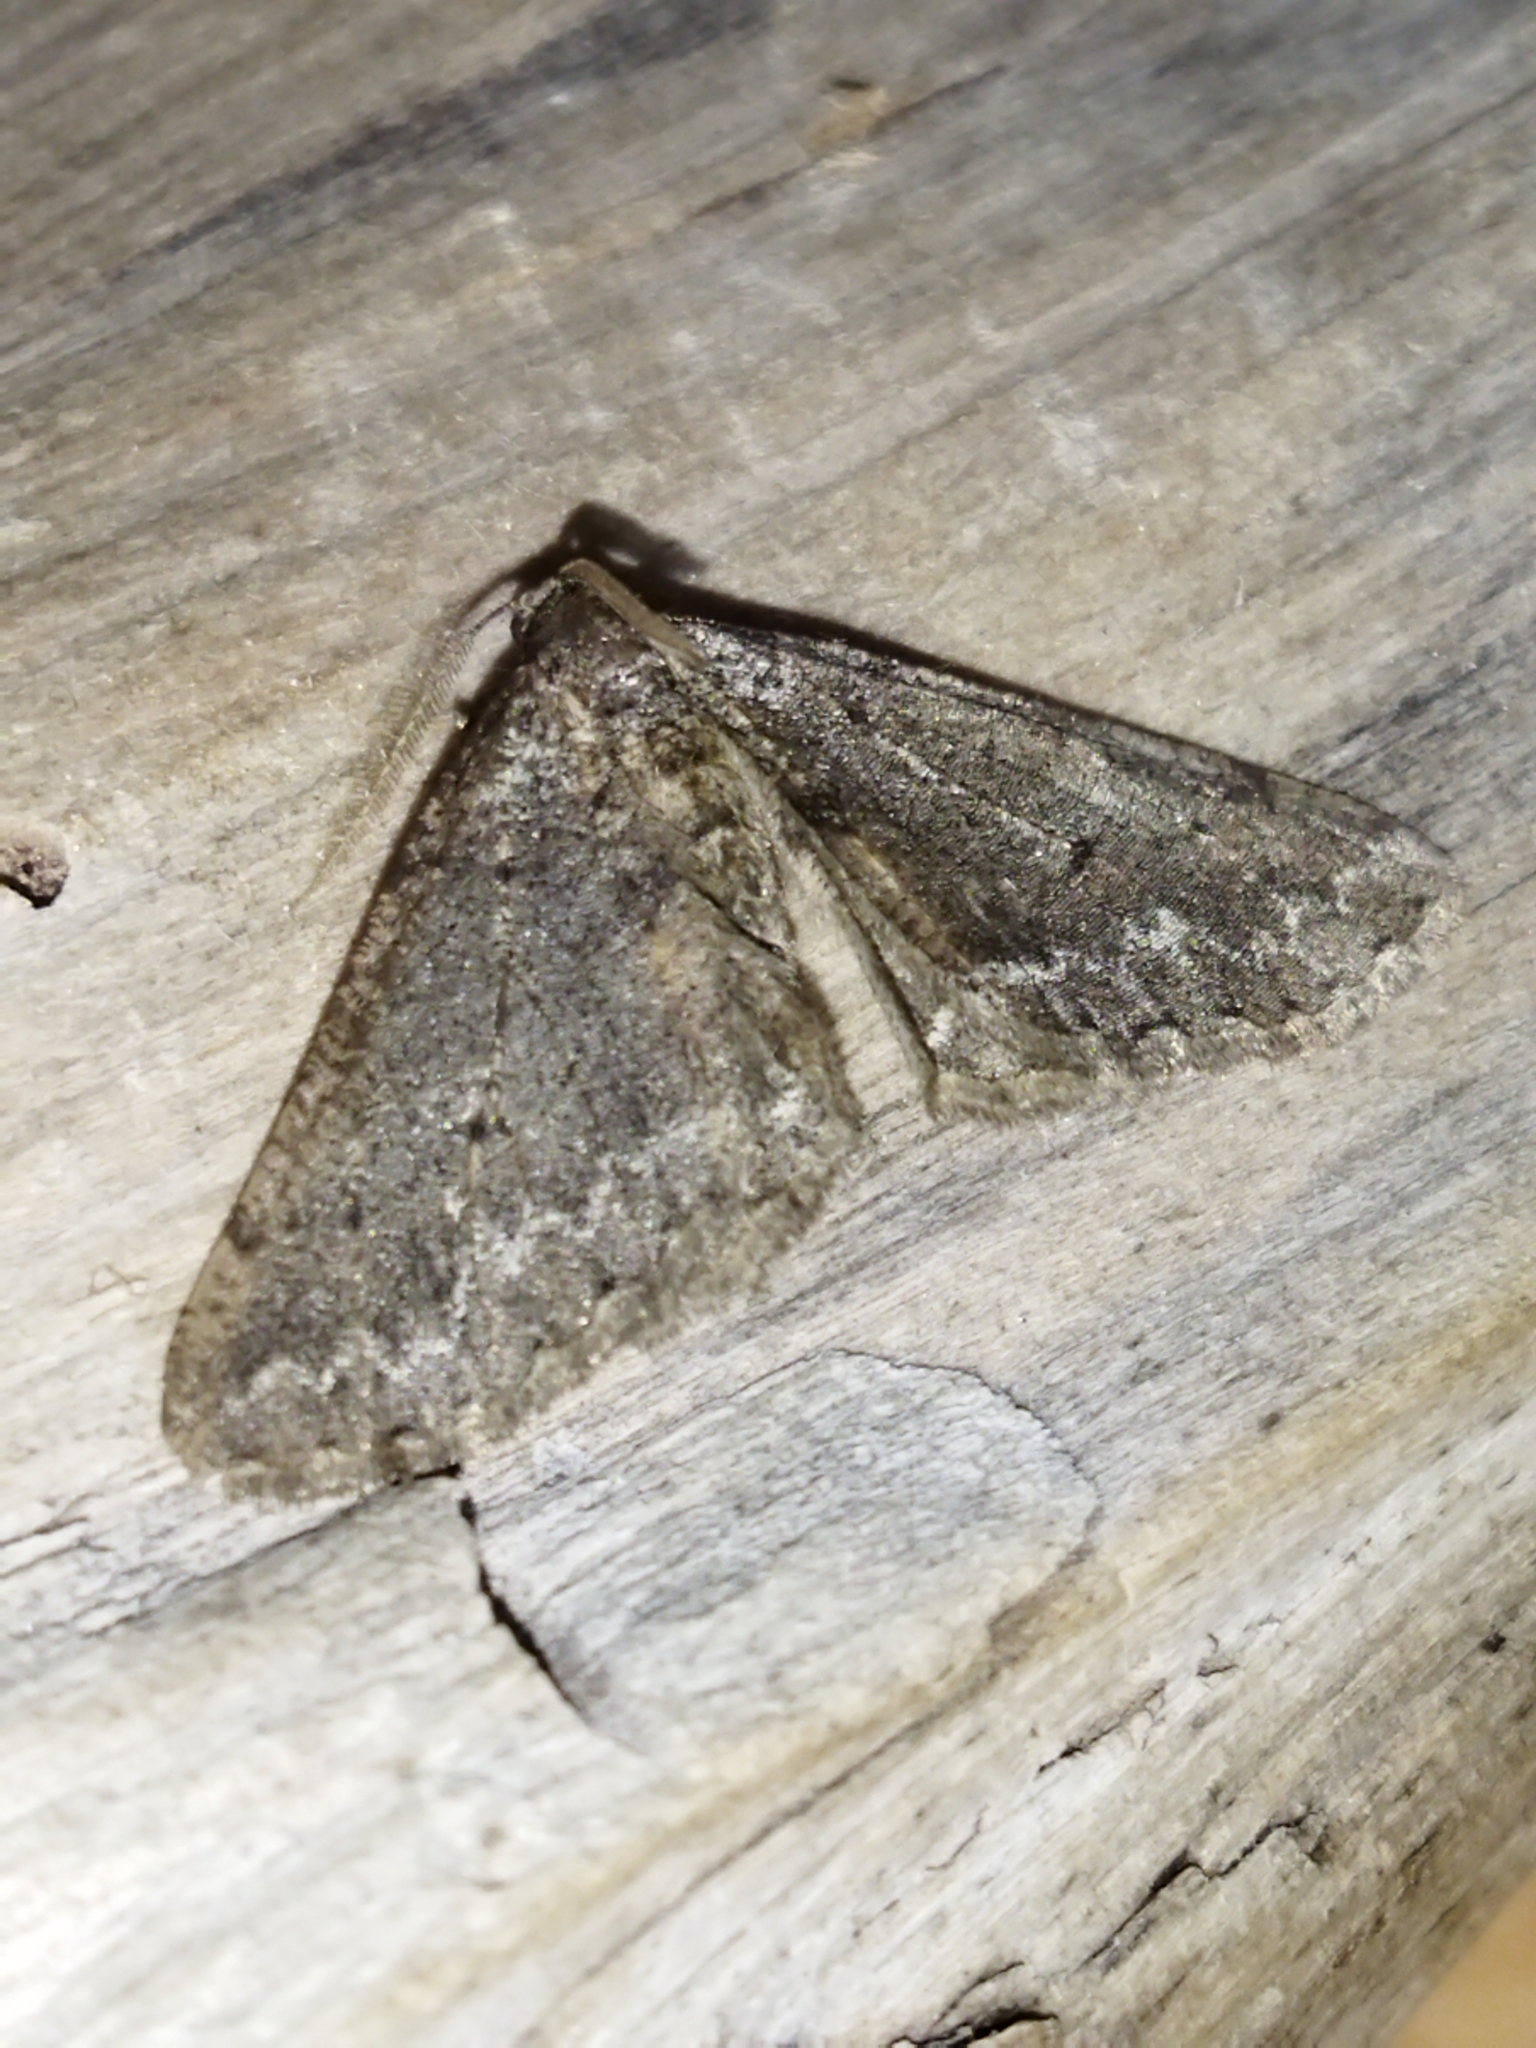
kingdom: Animalia
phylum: Arthropoda
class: Insecta
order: Lepidoptera
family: Geometridae
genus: Agriopis
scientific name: Agriopis bajaria
